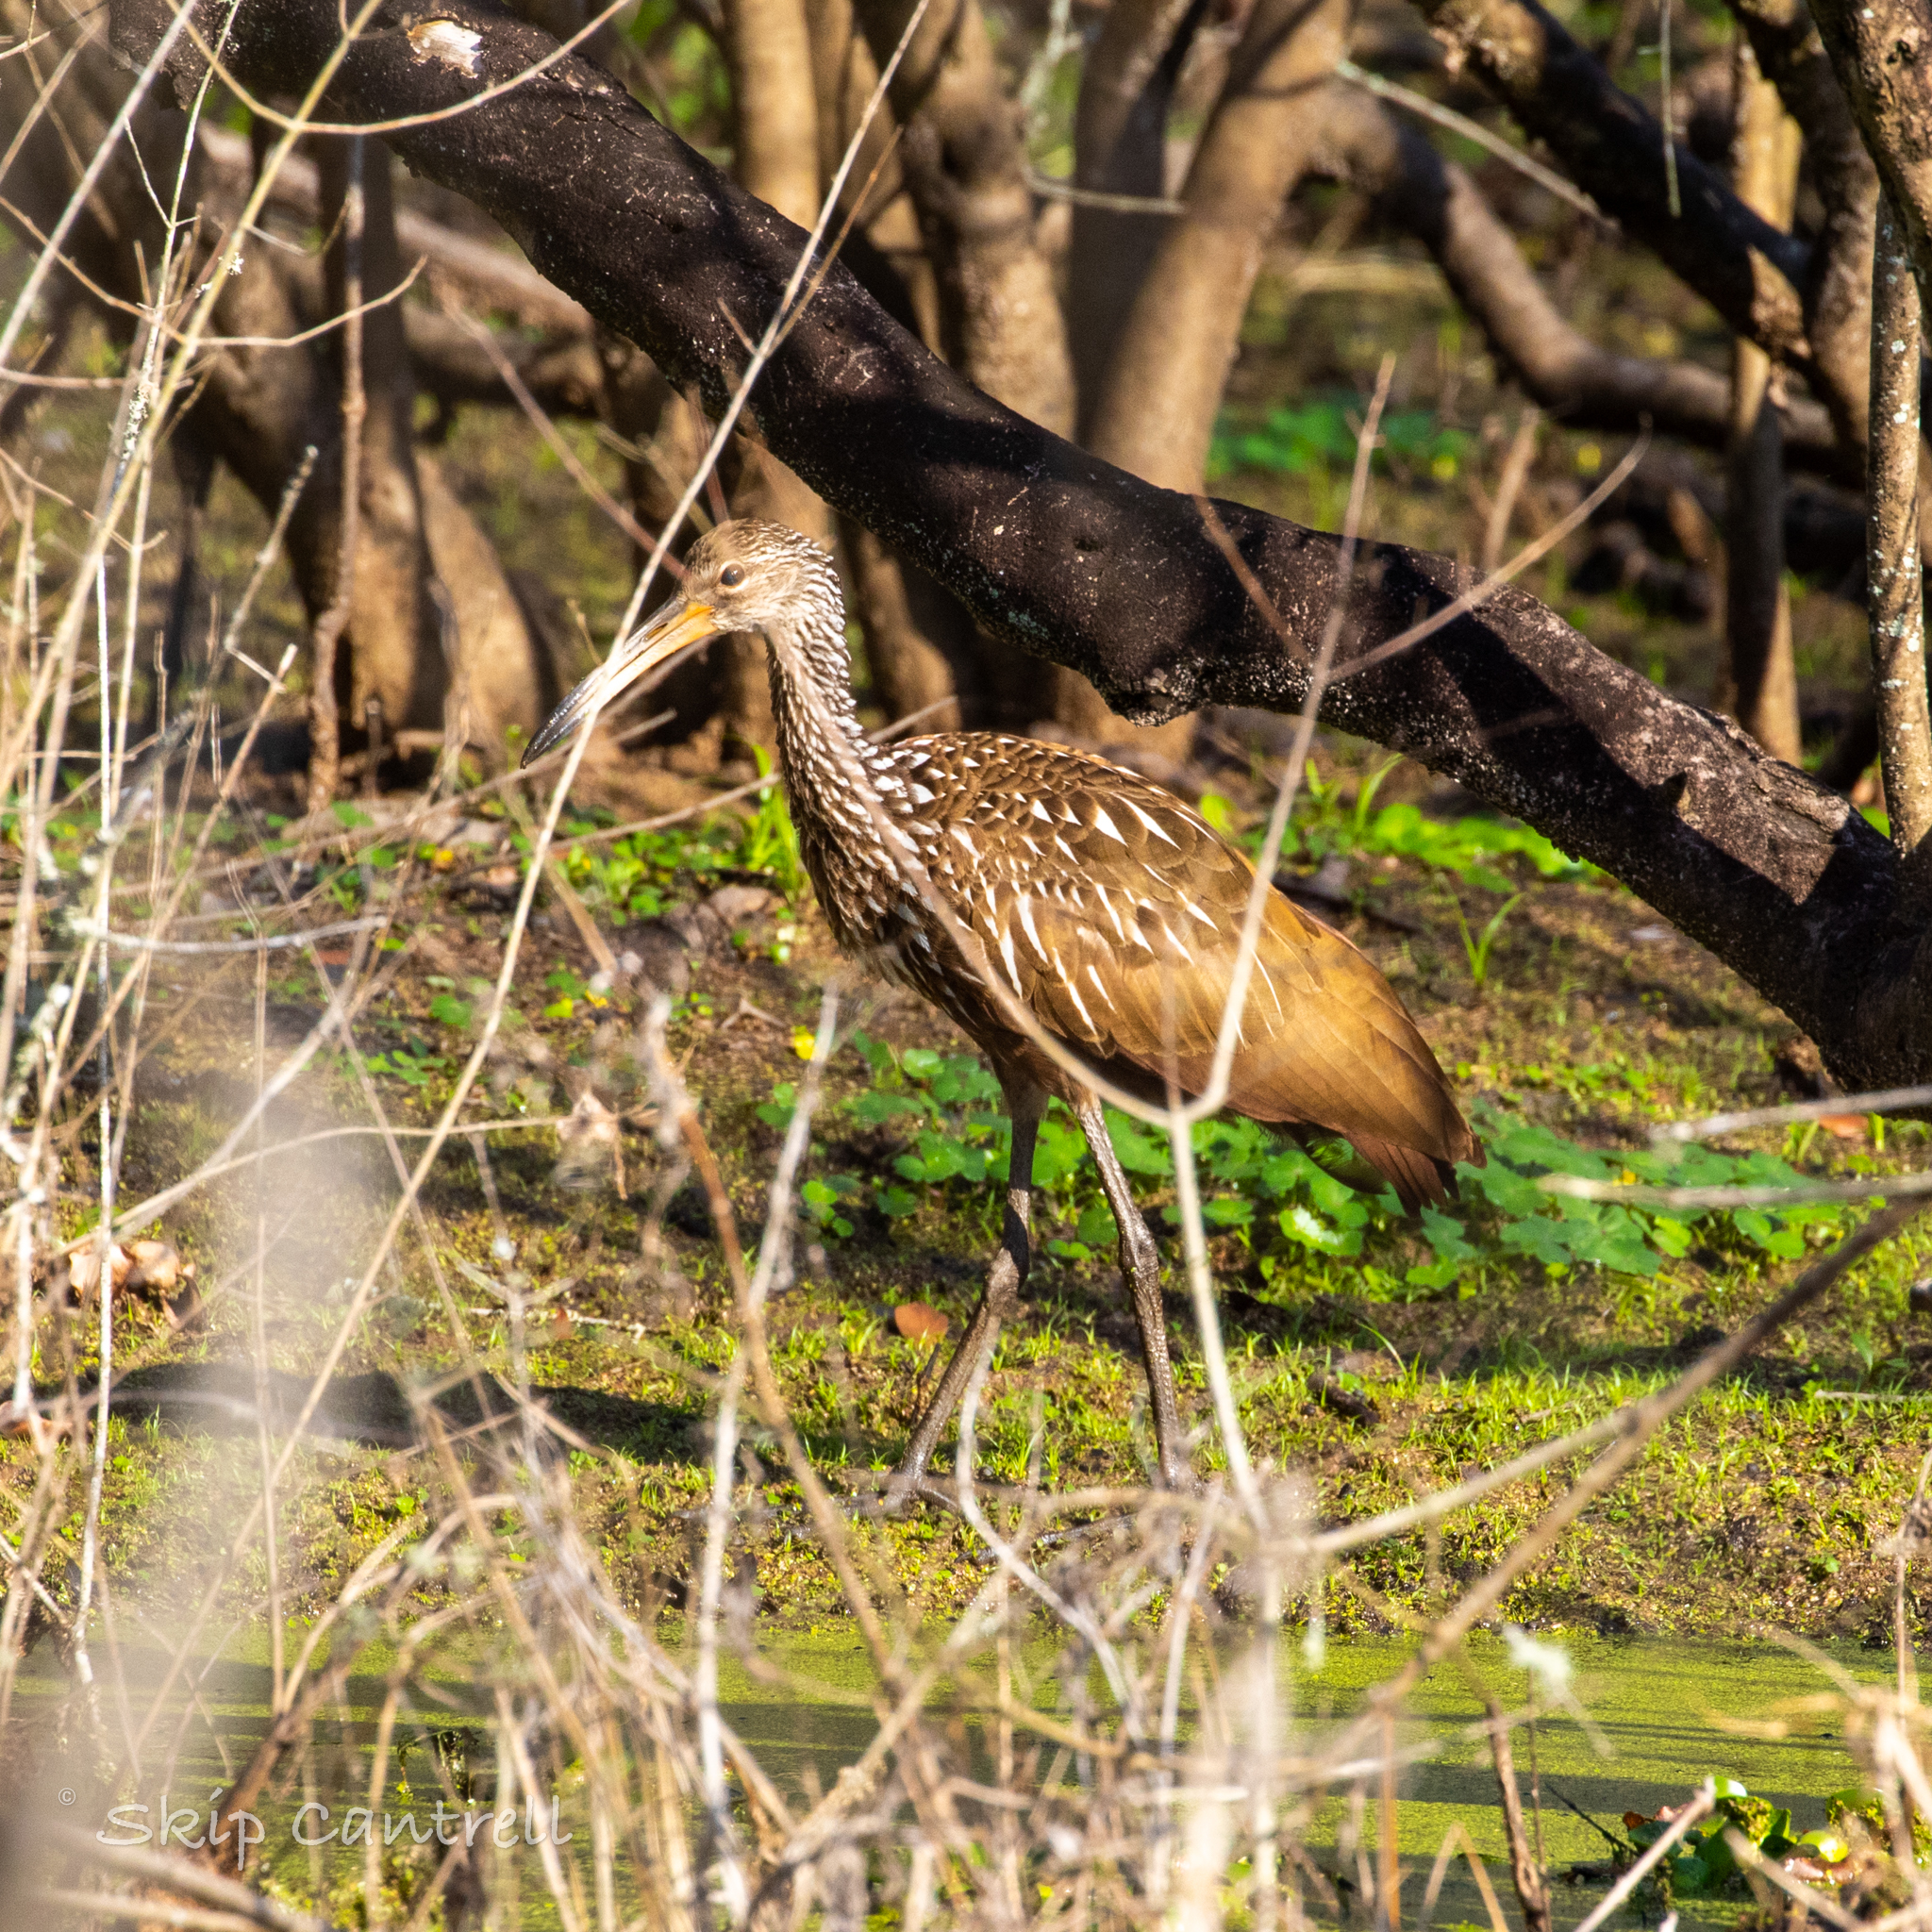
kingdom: Animalia
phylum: Chordata
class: Aves
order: Gruiformes
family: Aramidae
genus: Aramus
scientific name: Aramus guarauna
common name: Limpkin
